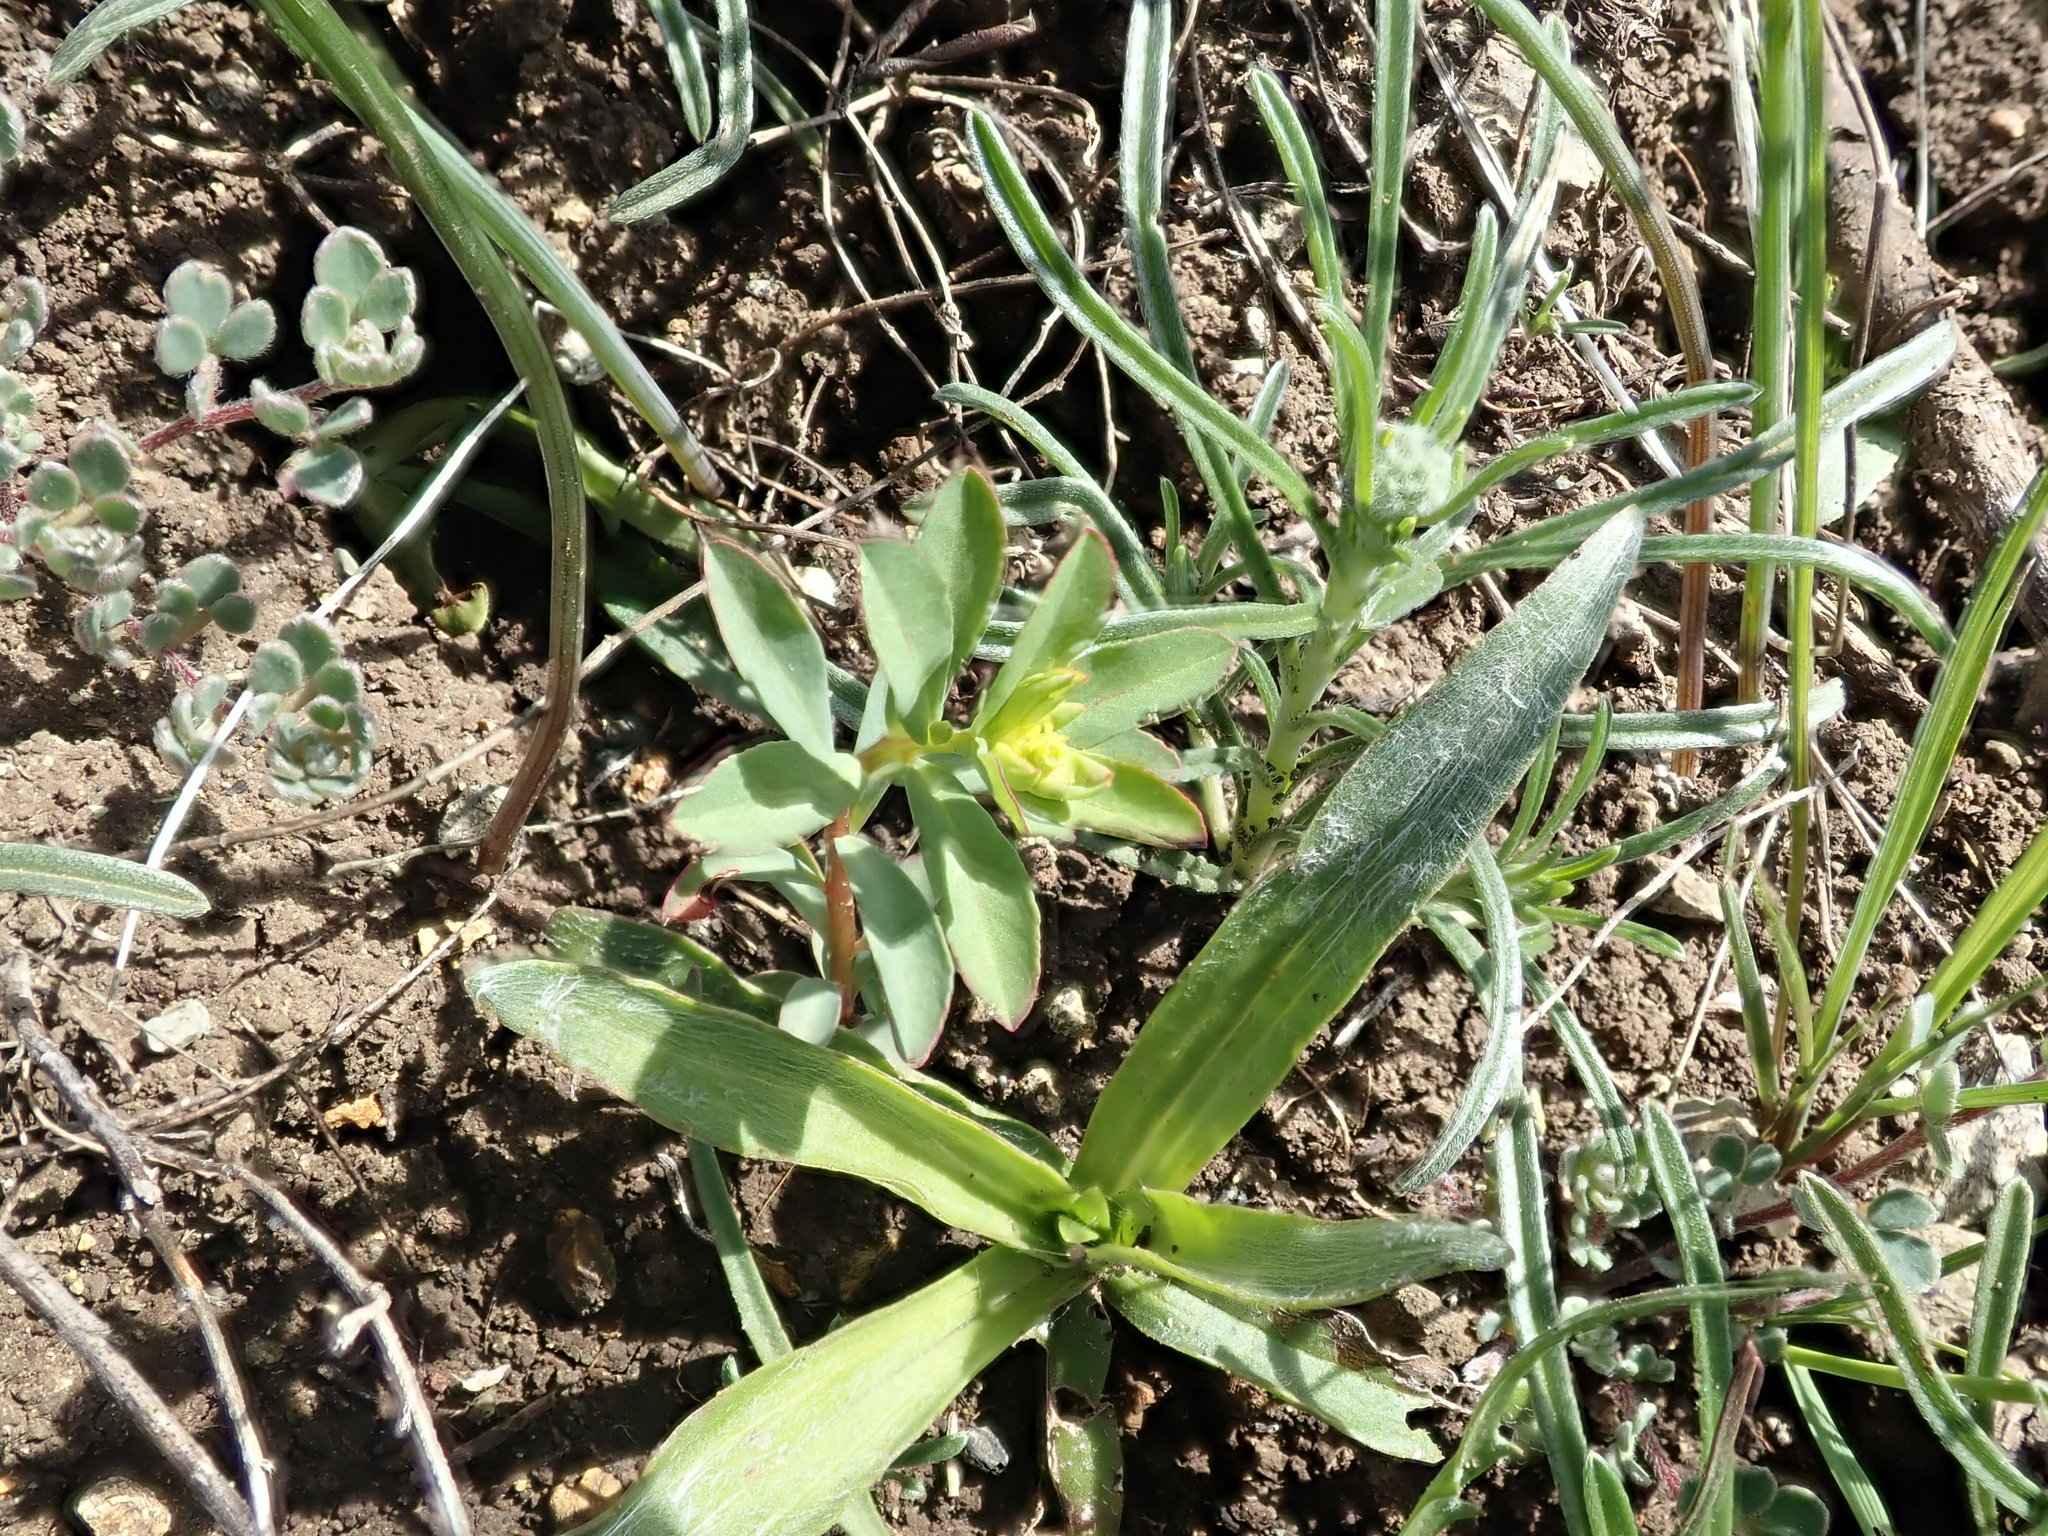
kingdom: Plantae
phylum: Tracheophyta
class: Magnoliopsida
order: Malpighiales
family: Euphorbiaceae
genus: Euphorbia
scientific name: Euphorbia spathulata
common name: Blunt spurge
